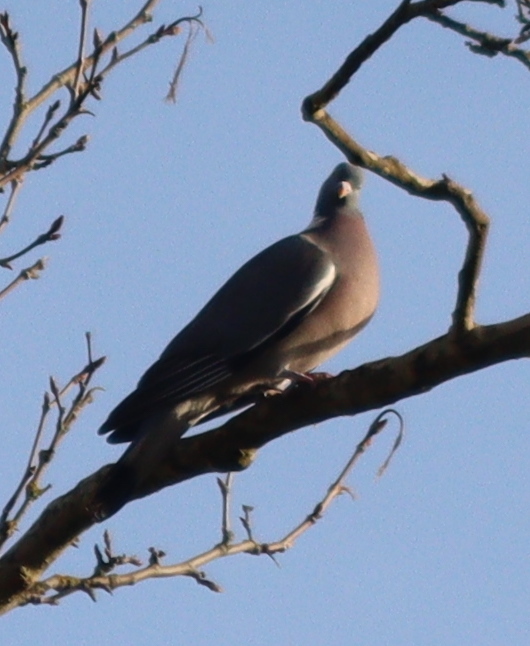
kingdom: Animalia
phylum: Chordata
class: Aves
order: Columbiformes
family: Columbidae
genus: Columba
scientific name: Columba palumbus
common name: Common wood pigeon
